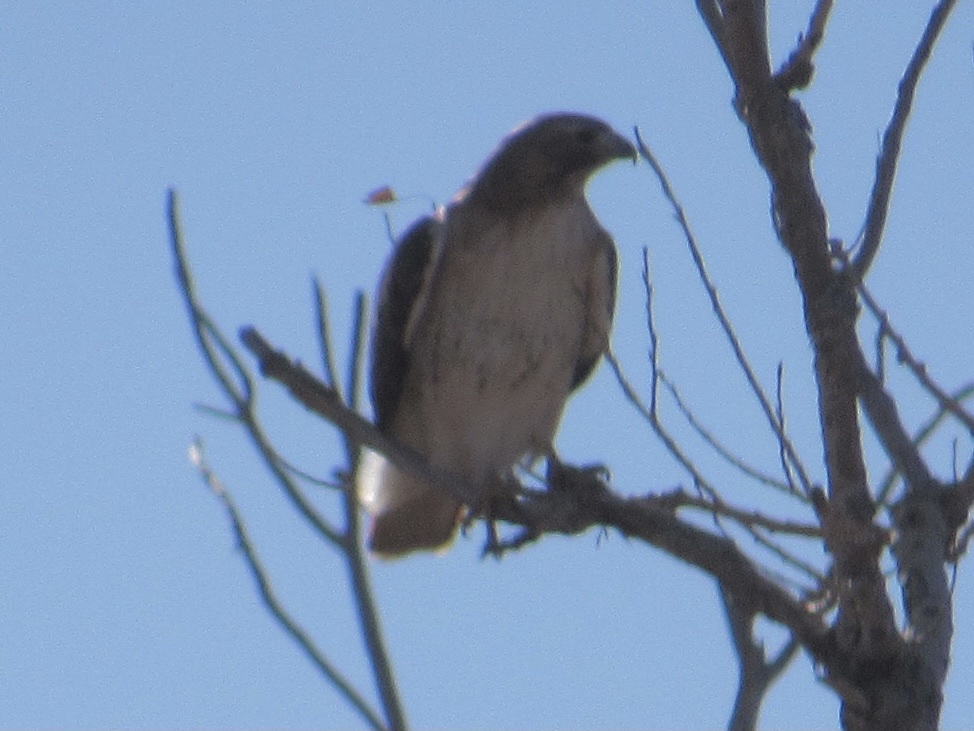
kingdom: Animalia
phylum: Chordata
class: Aves
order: Accipitriformes
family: Accipitridae
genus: Buteo
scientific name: Buteo jamaicensis
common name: Red-tailed hawk
